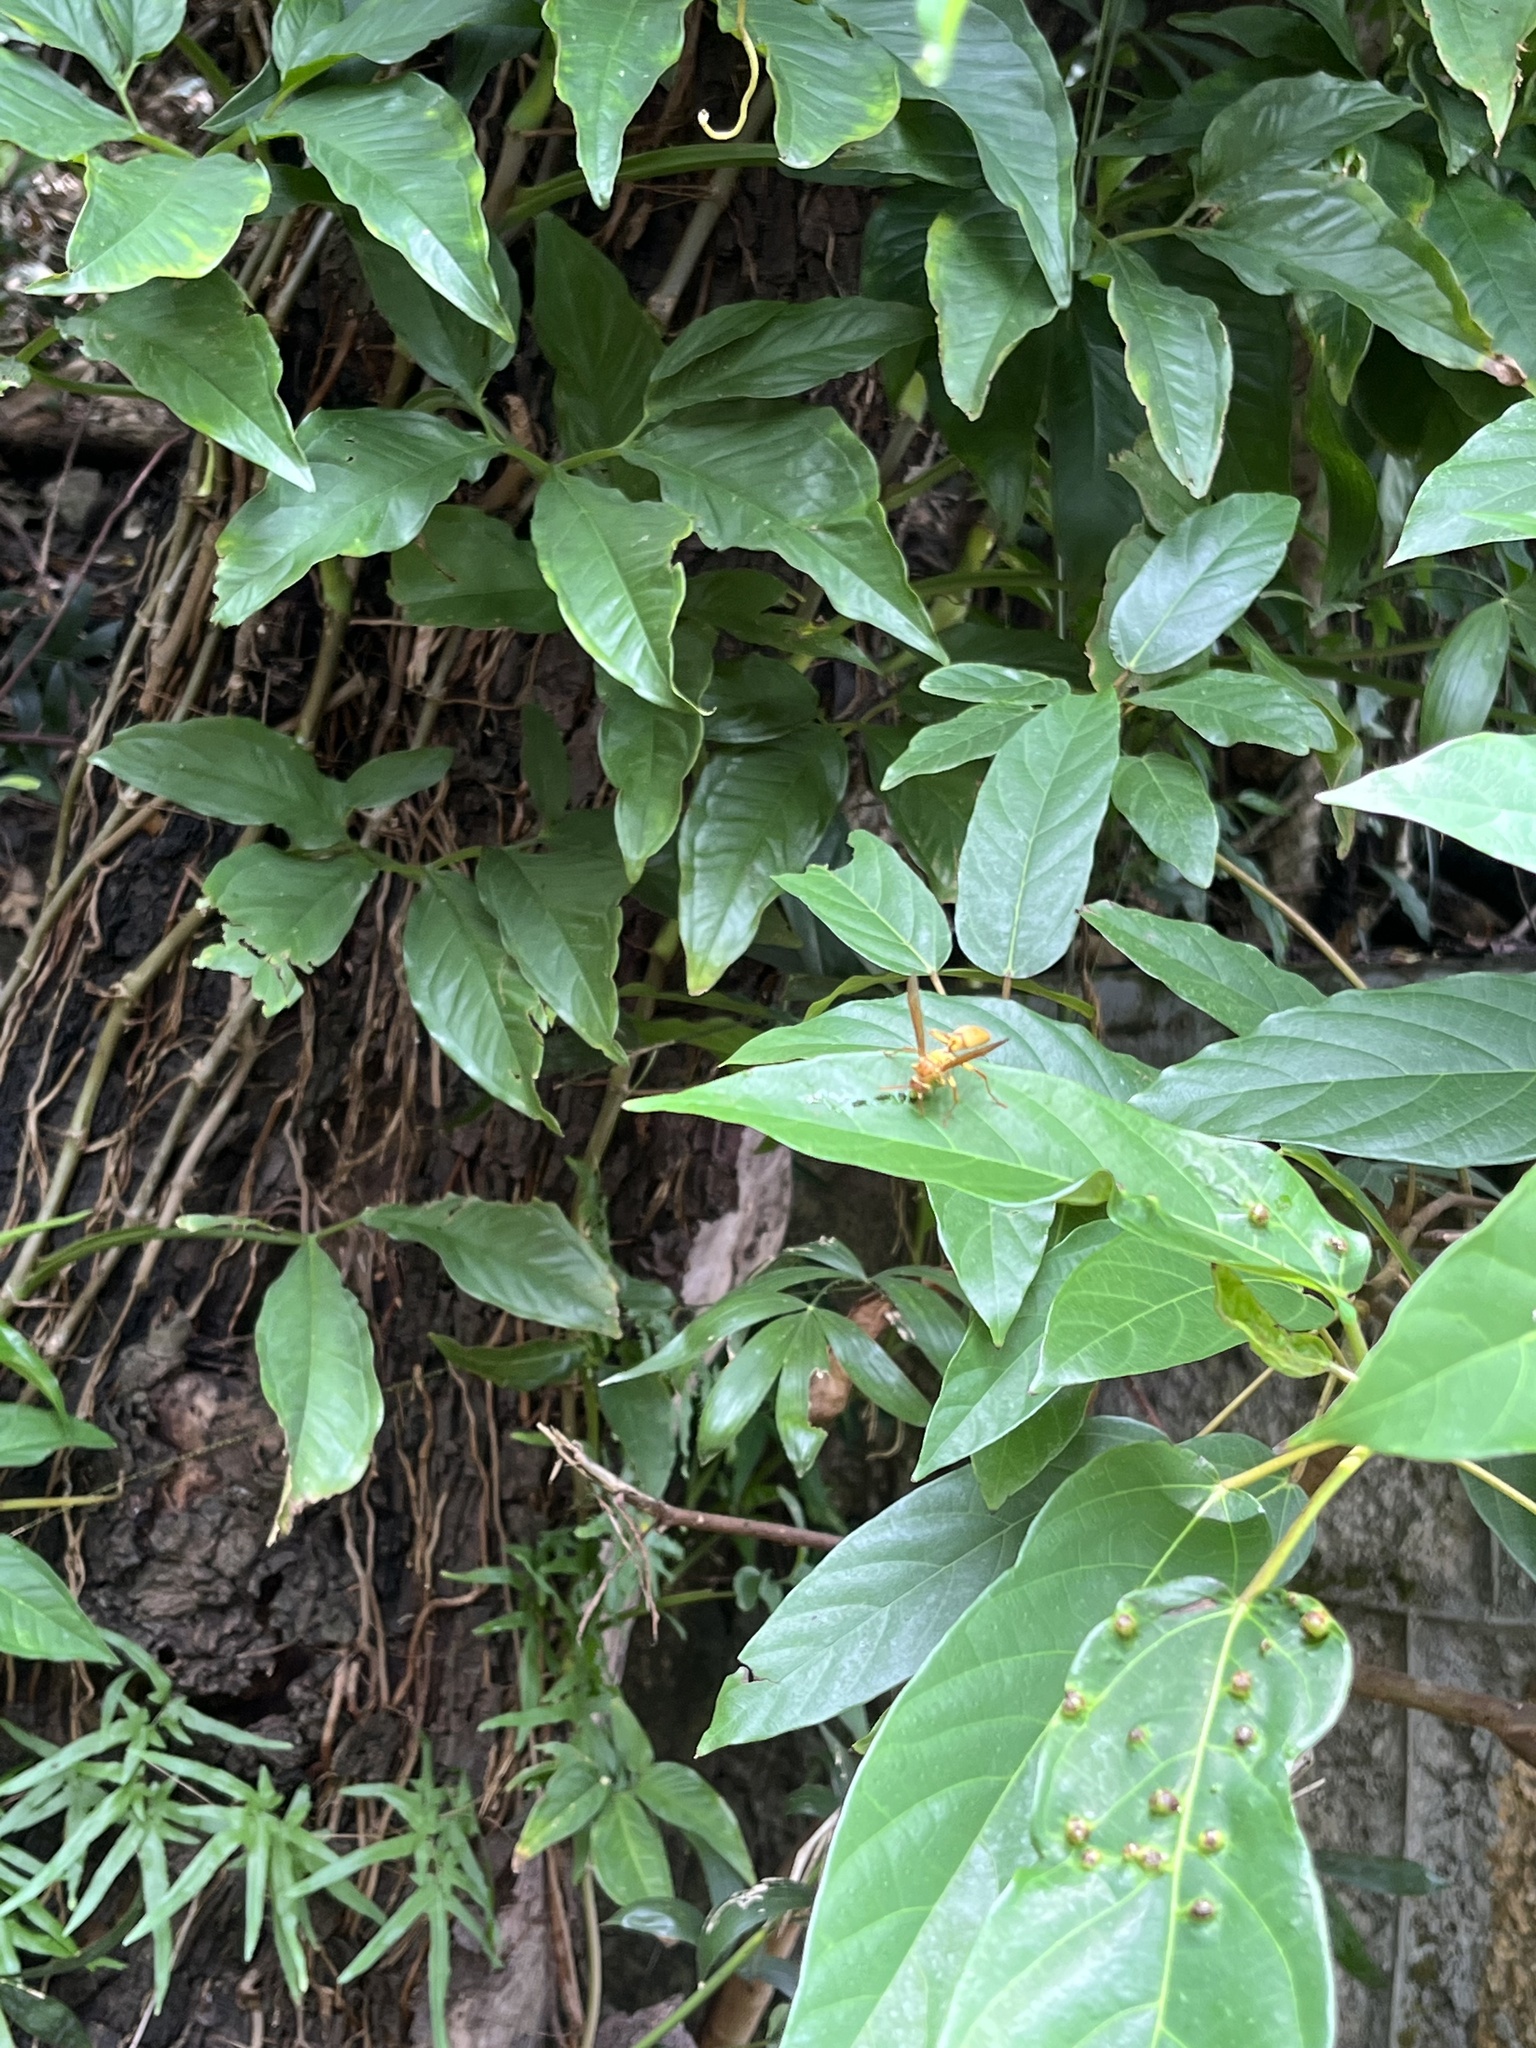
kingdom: Animalia
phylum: Arthropoda
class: Insecta
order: Hymenoptera
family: Eumenidae
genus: Polistes
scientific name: Polistes japonicus
